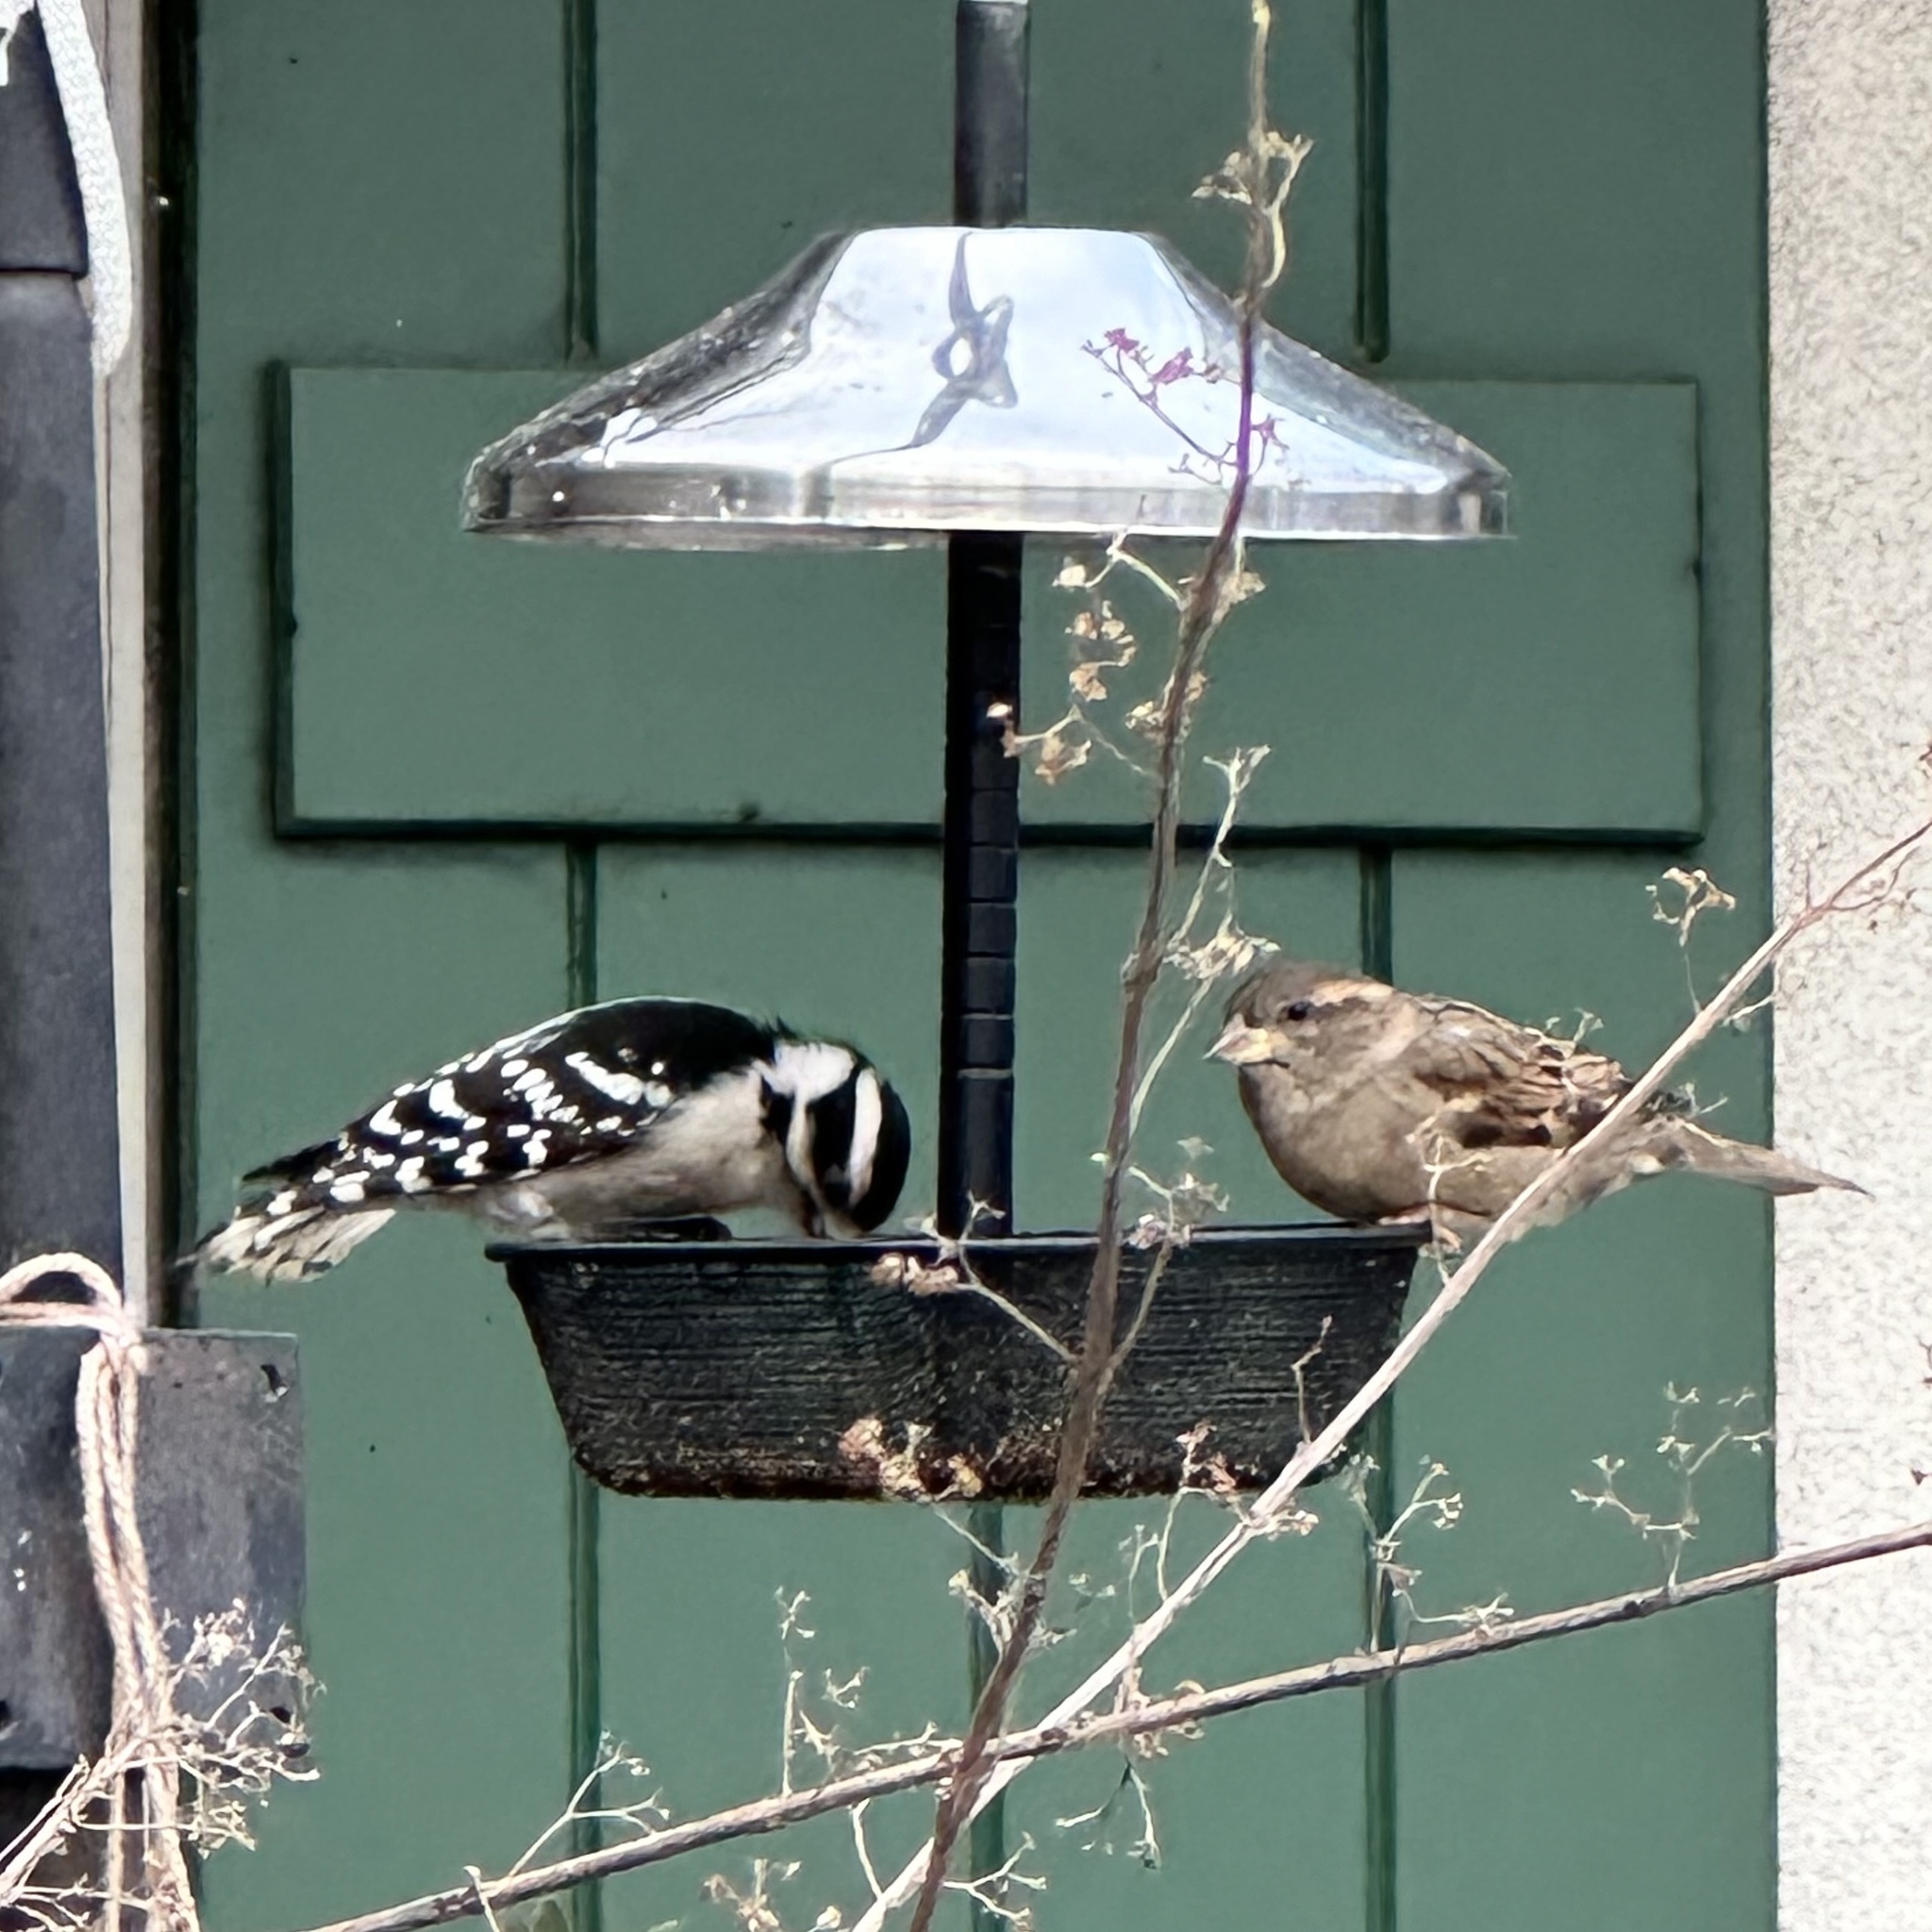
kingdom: Animalia
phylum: Chordata
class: Aves
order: Passeriformes
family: Passeridae
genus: Passer
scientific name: Passer domesticus
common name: House sparrow
